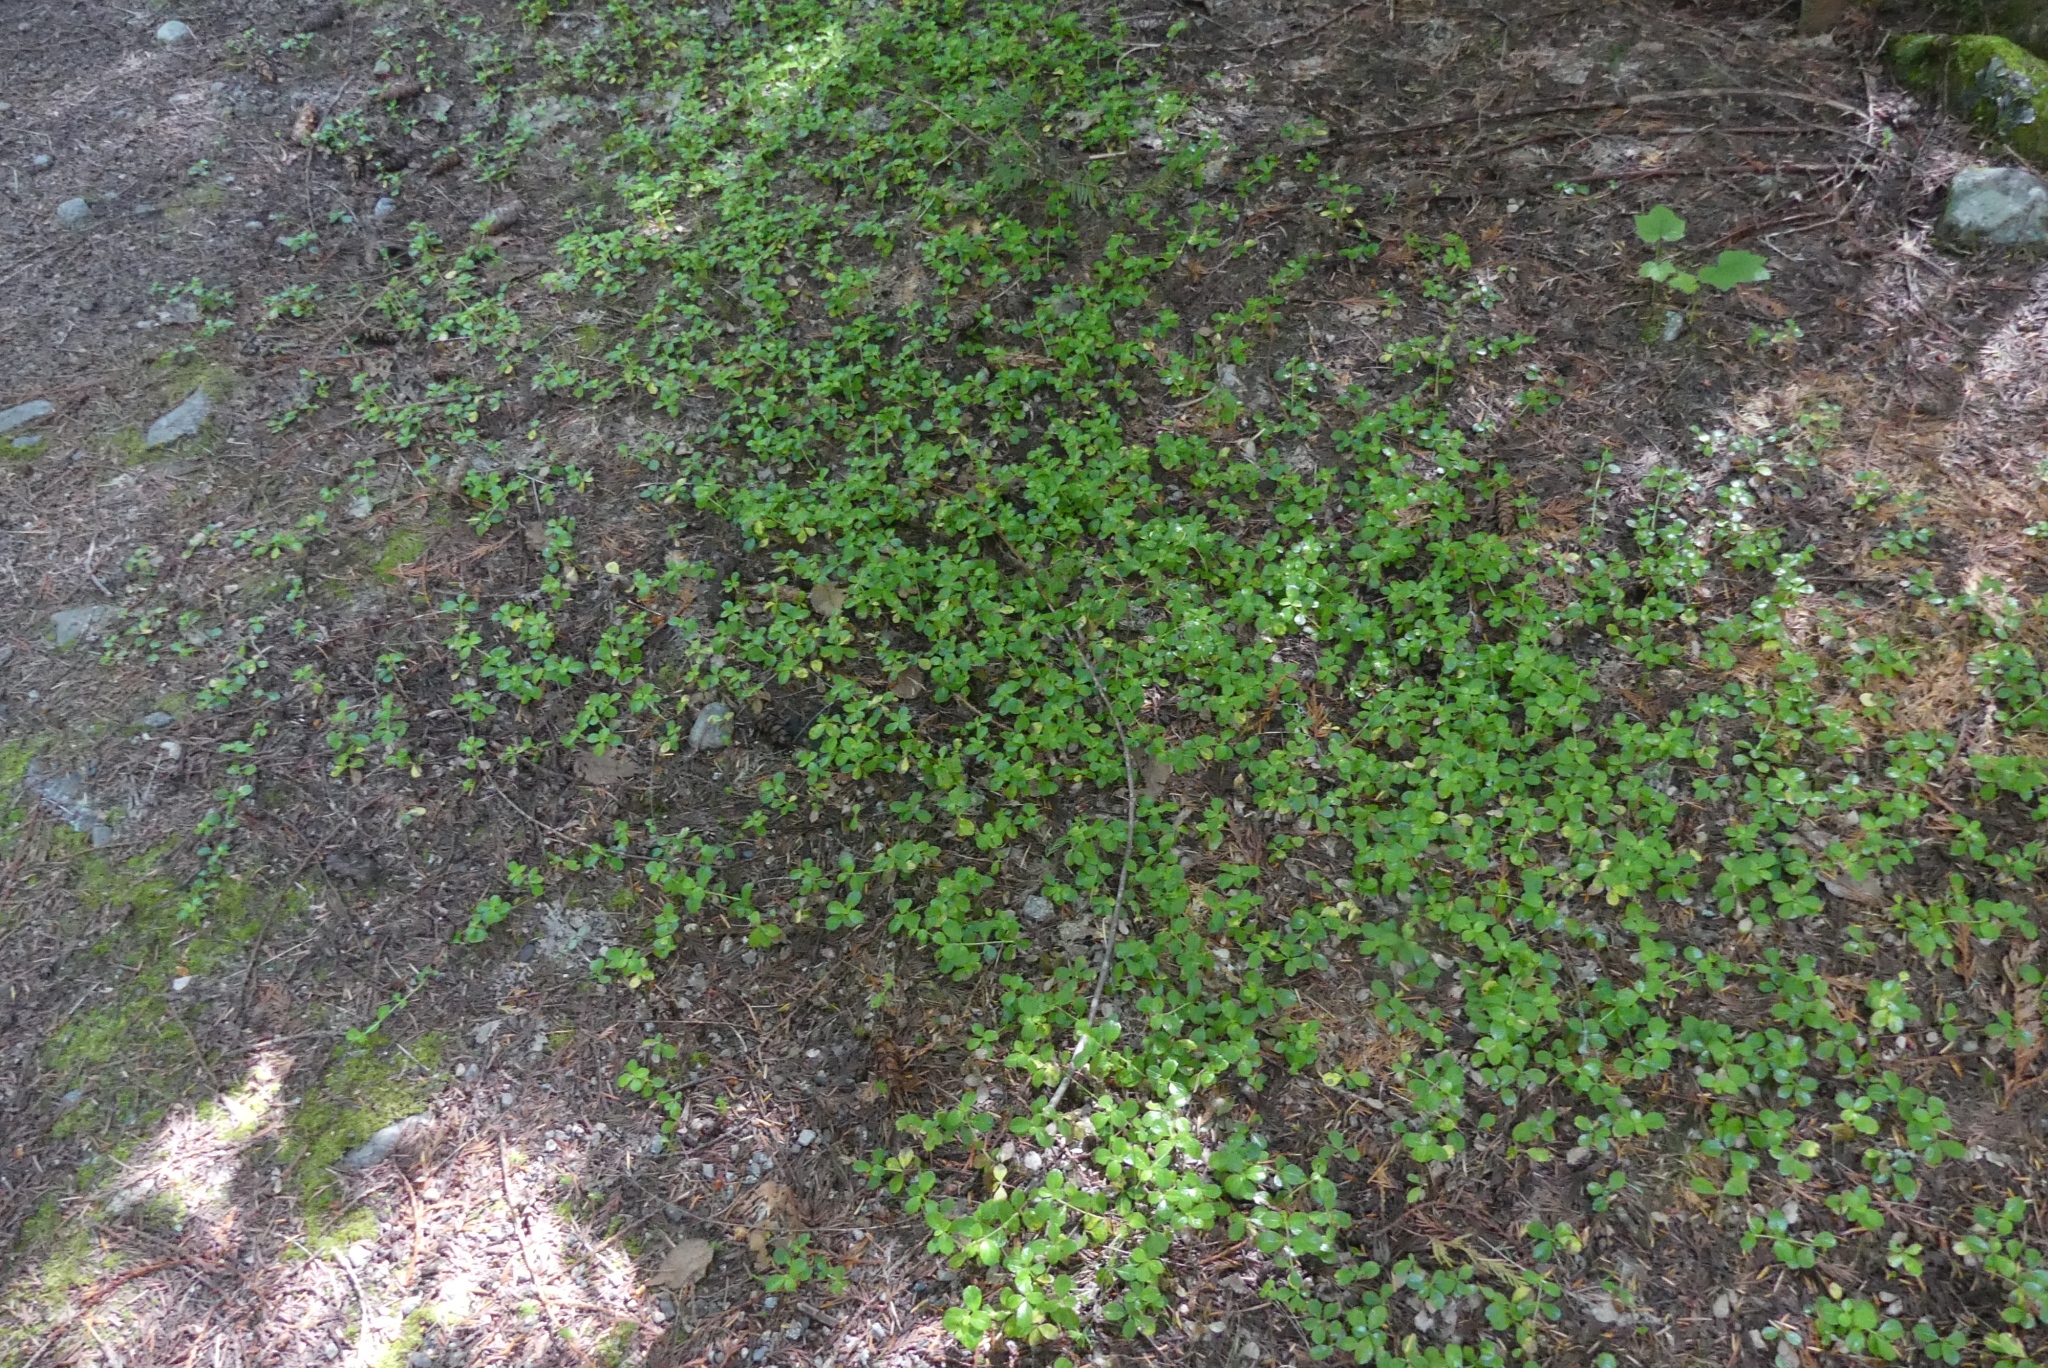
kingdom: Plantae
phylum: Tracheophyta
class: Magnoliopsida
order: Dipsacales
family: Caprifoliaceae
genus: Linnaea
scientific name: Linnaea borealis
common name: Twinflower
